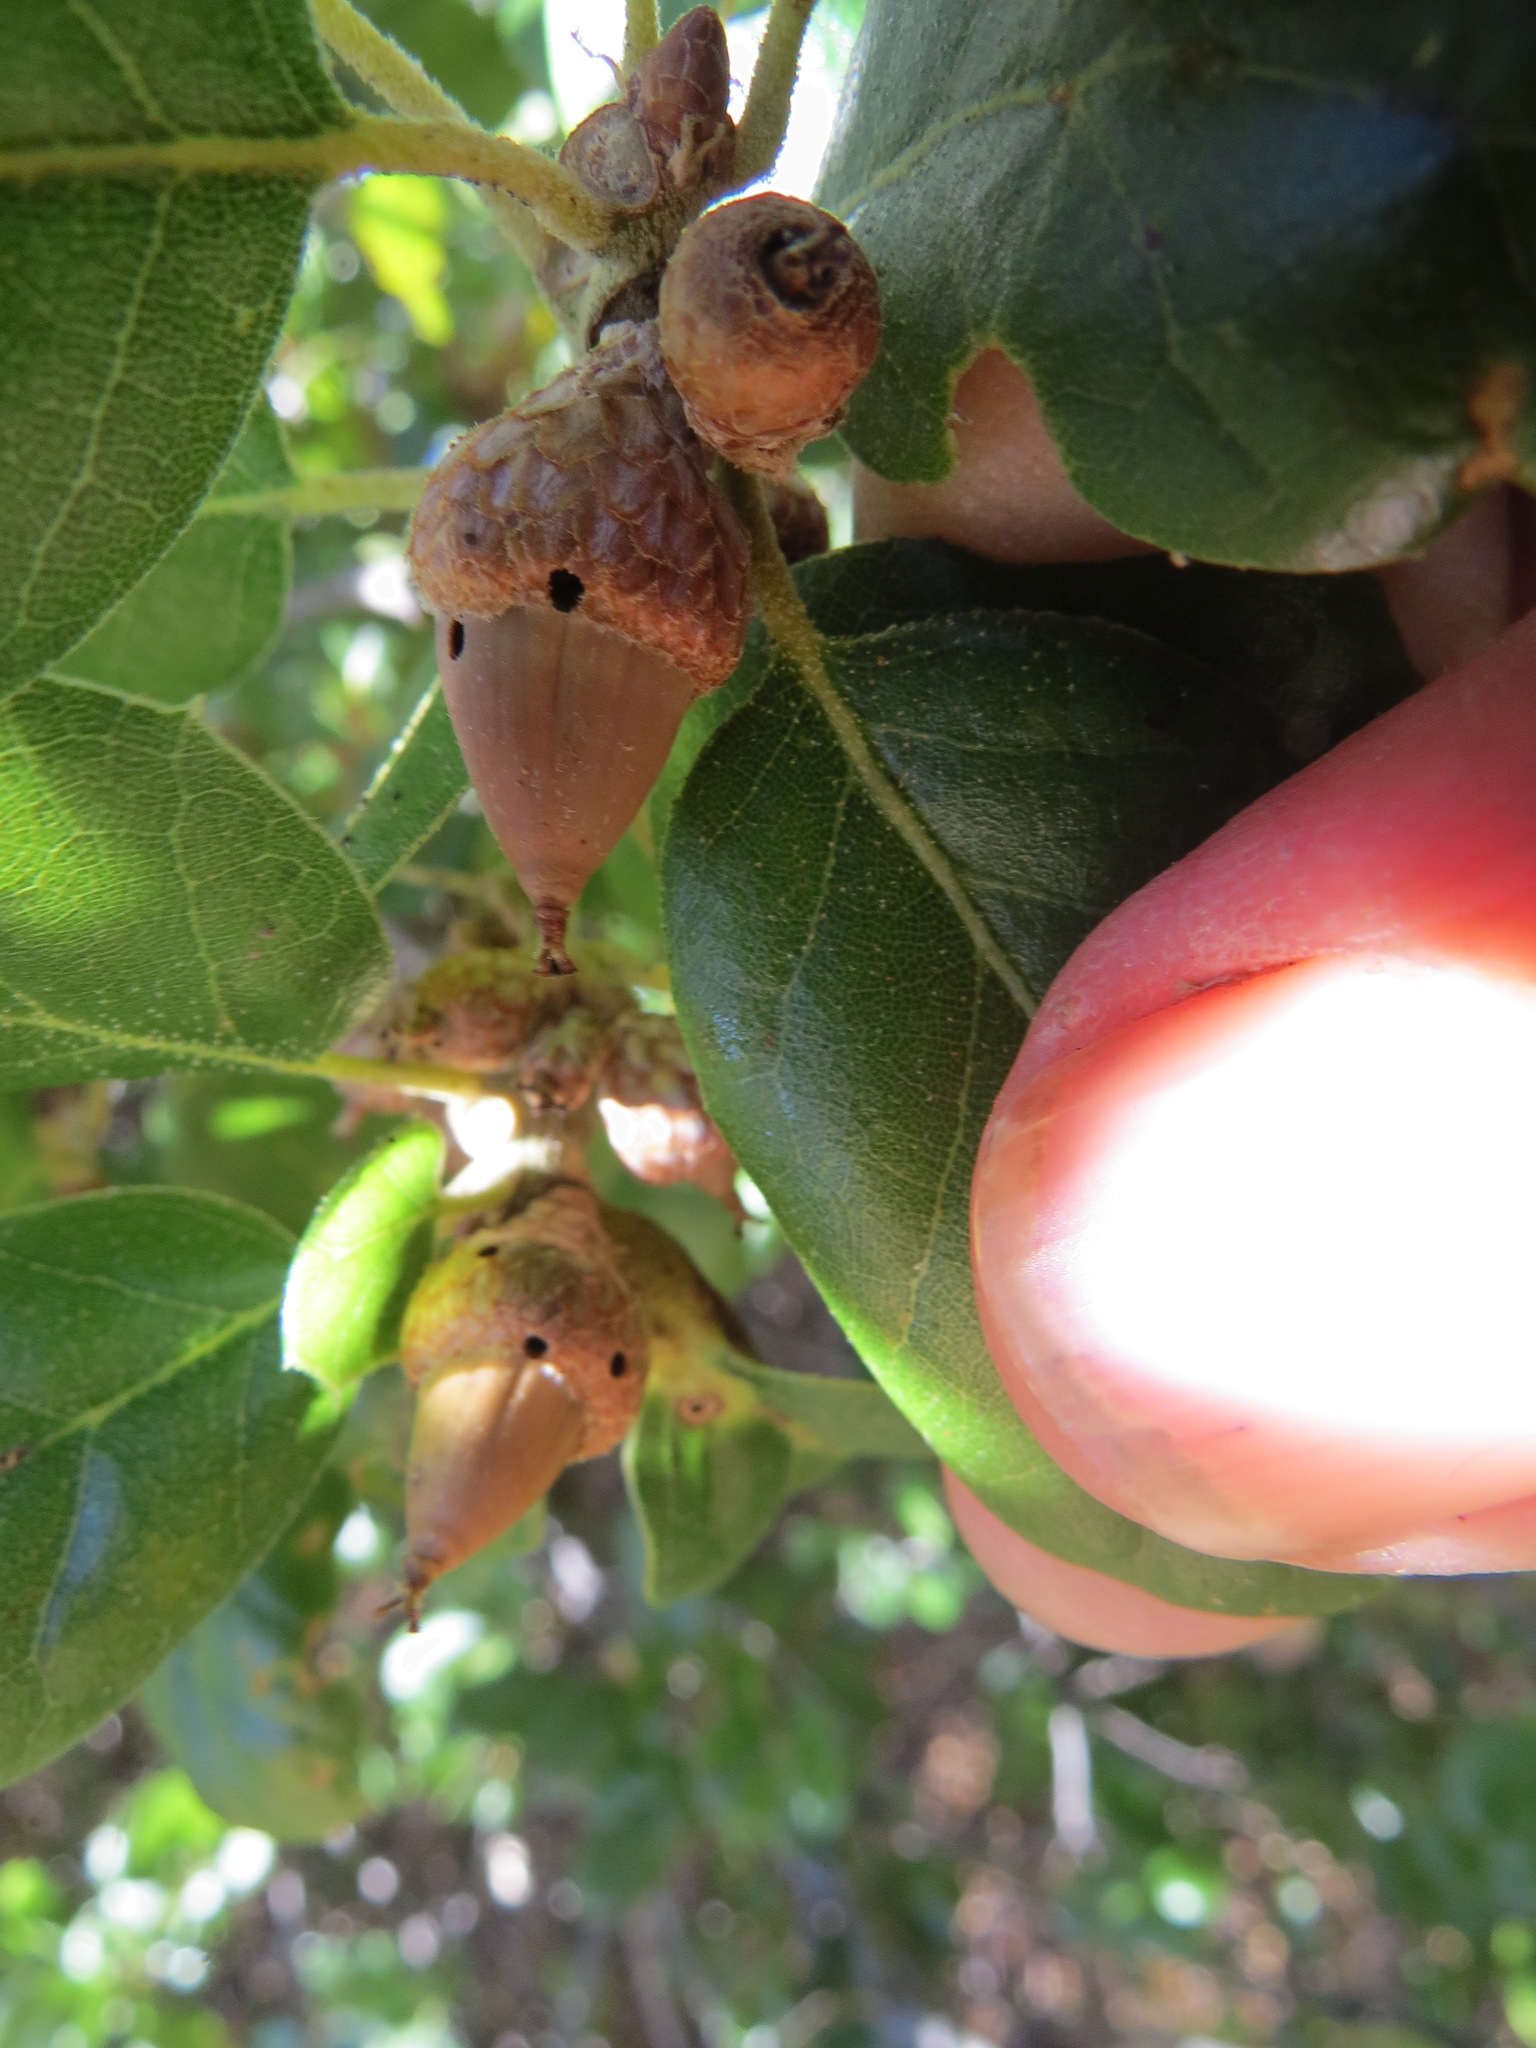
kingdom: Animalia
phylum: Arthropoda
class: Insecta
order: Hymenoptera
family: Cynipidae
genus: Callirhytis
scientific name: Callirhytis
